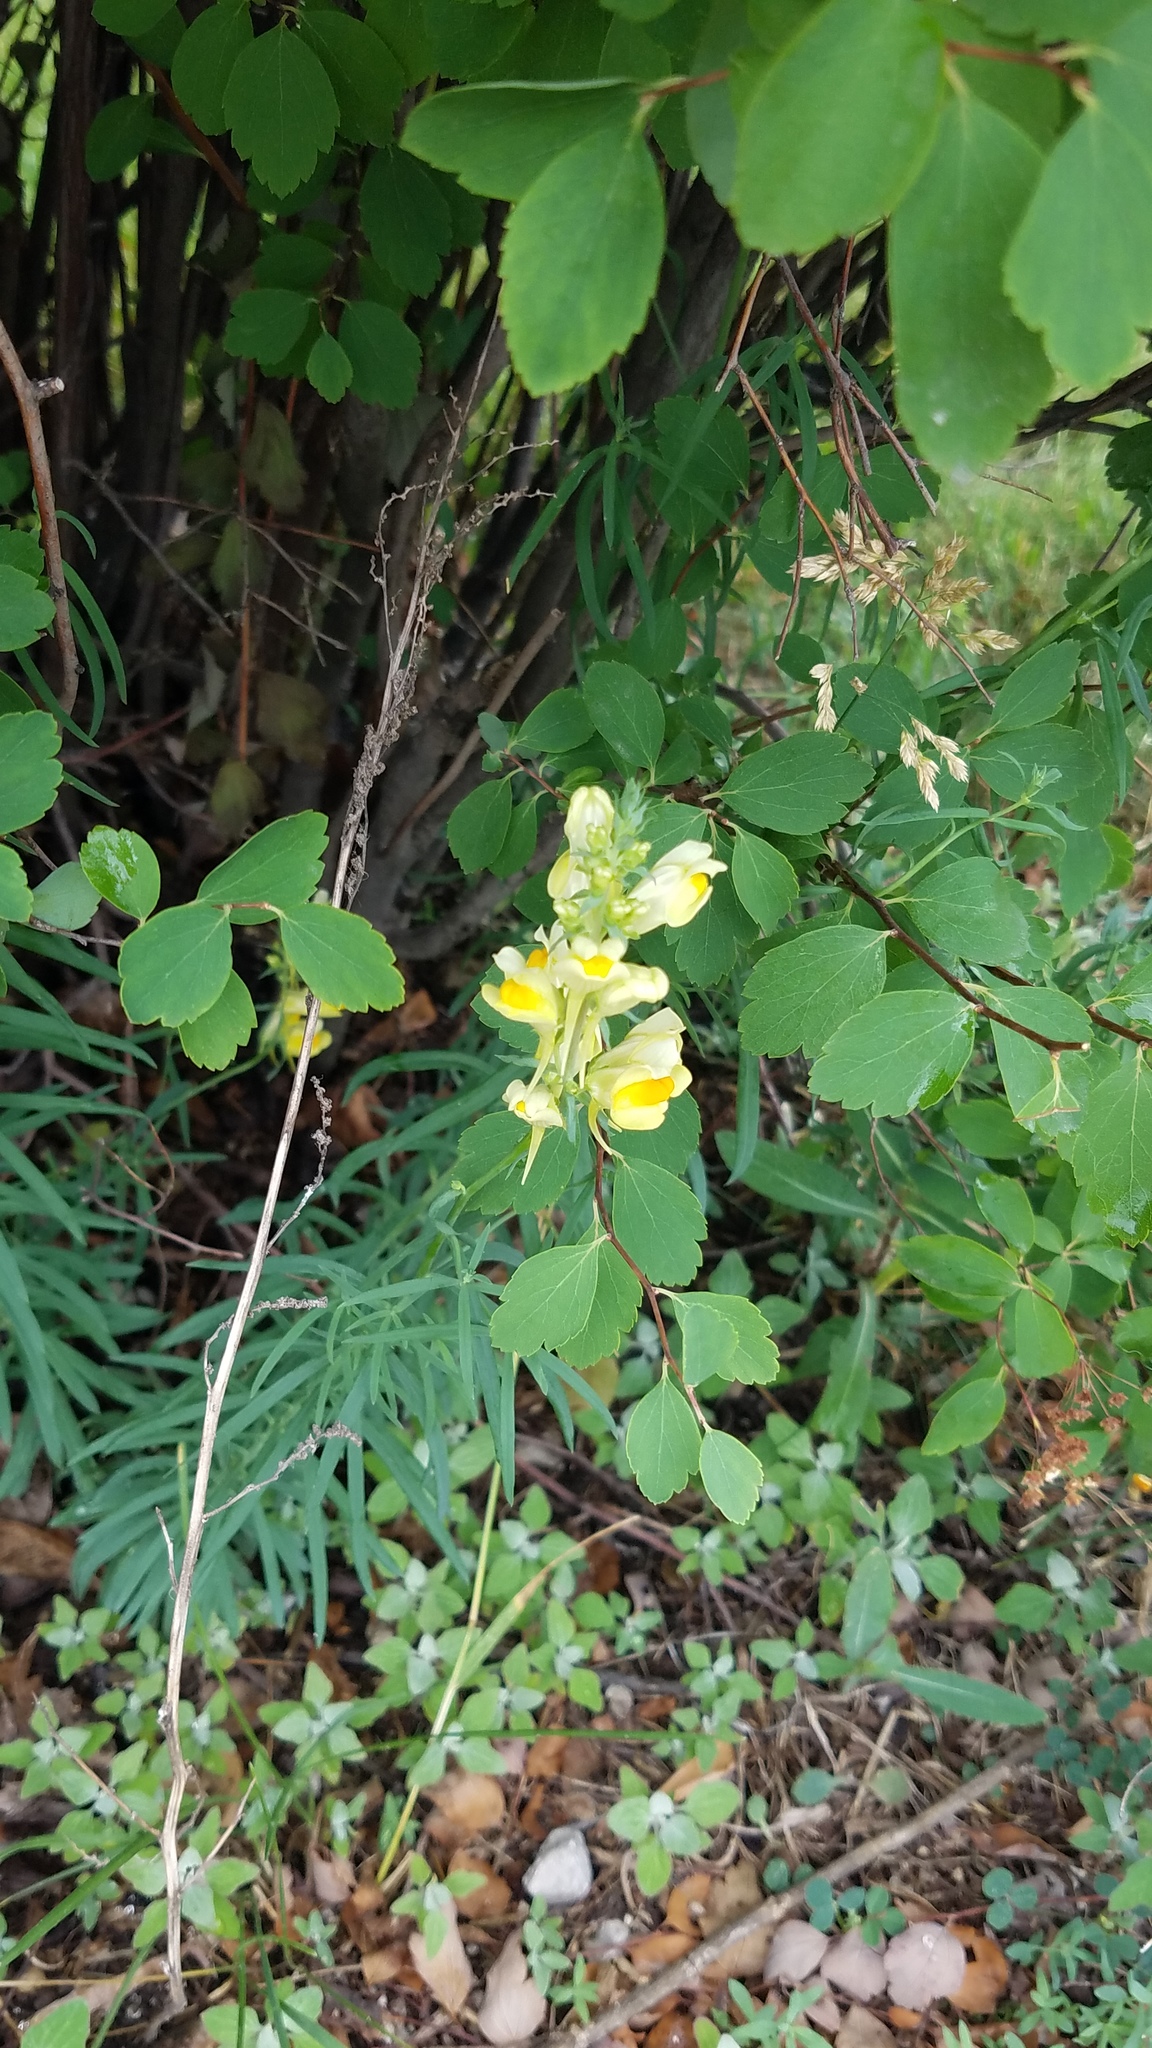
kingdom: Plantae
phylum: Tracheophyta
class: Magnoliopsida
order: Lamiales
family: Plantaginaceae
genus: Linaria
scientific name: Linaria vulgaris
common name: Butter and eggs
